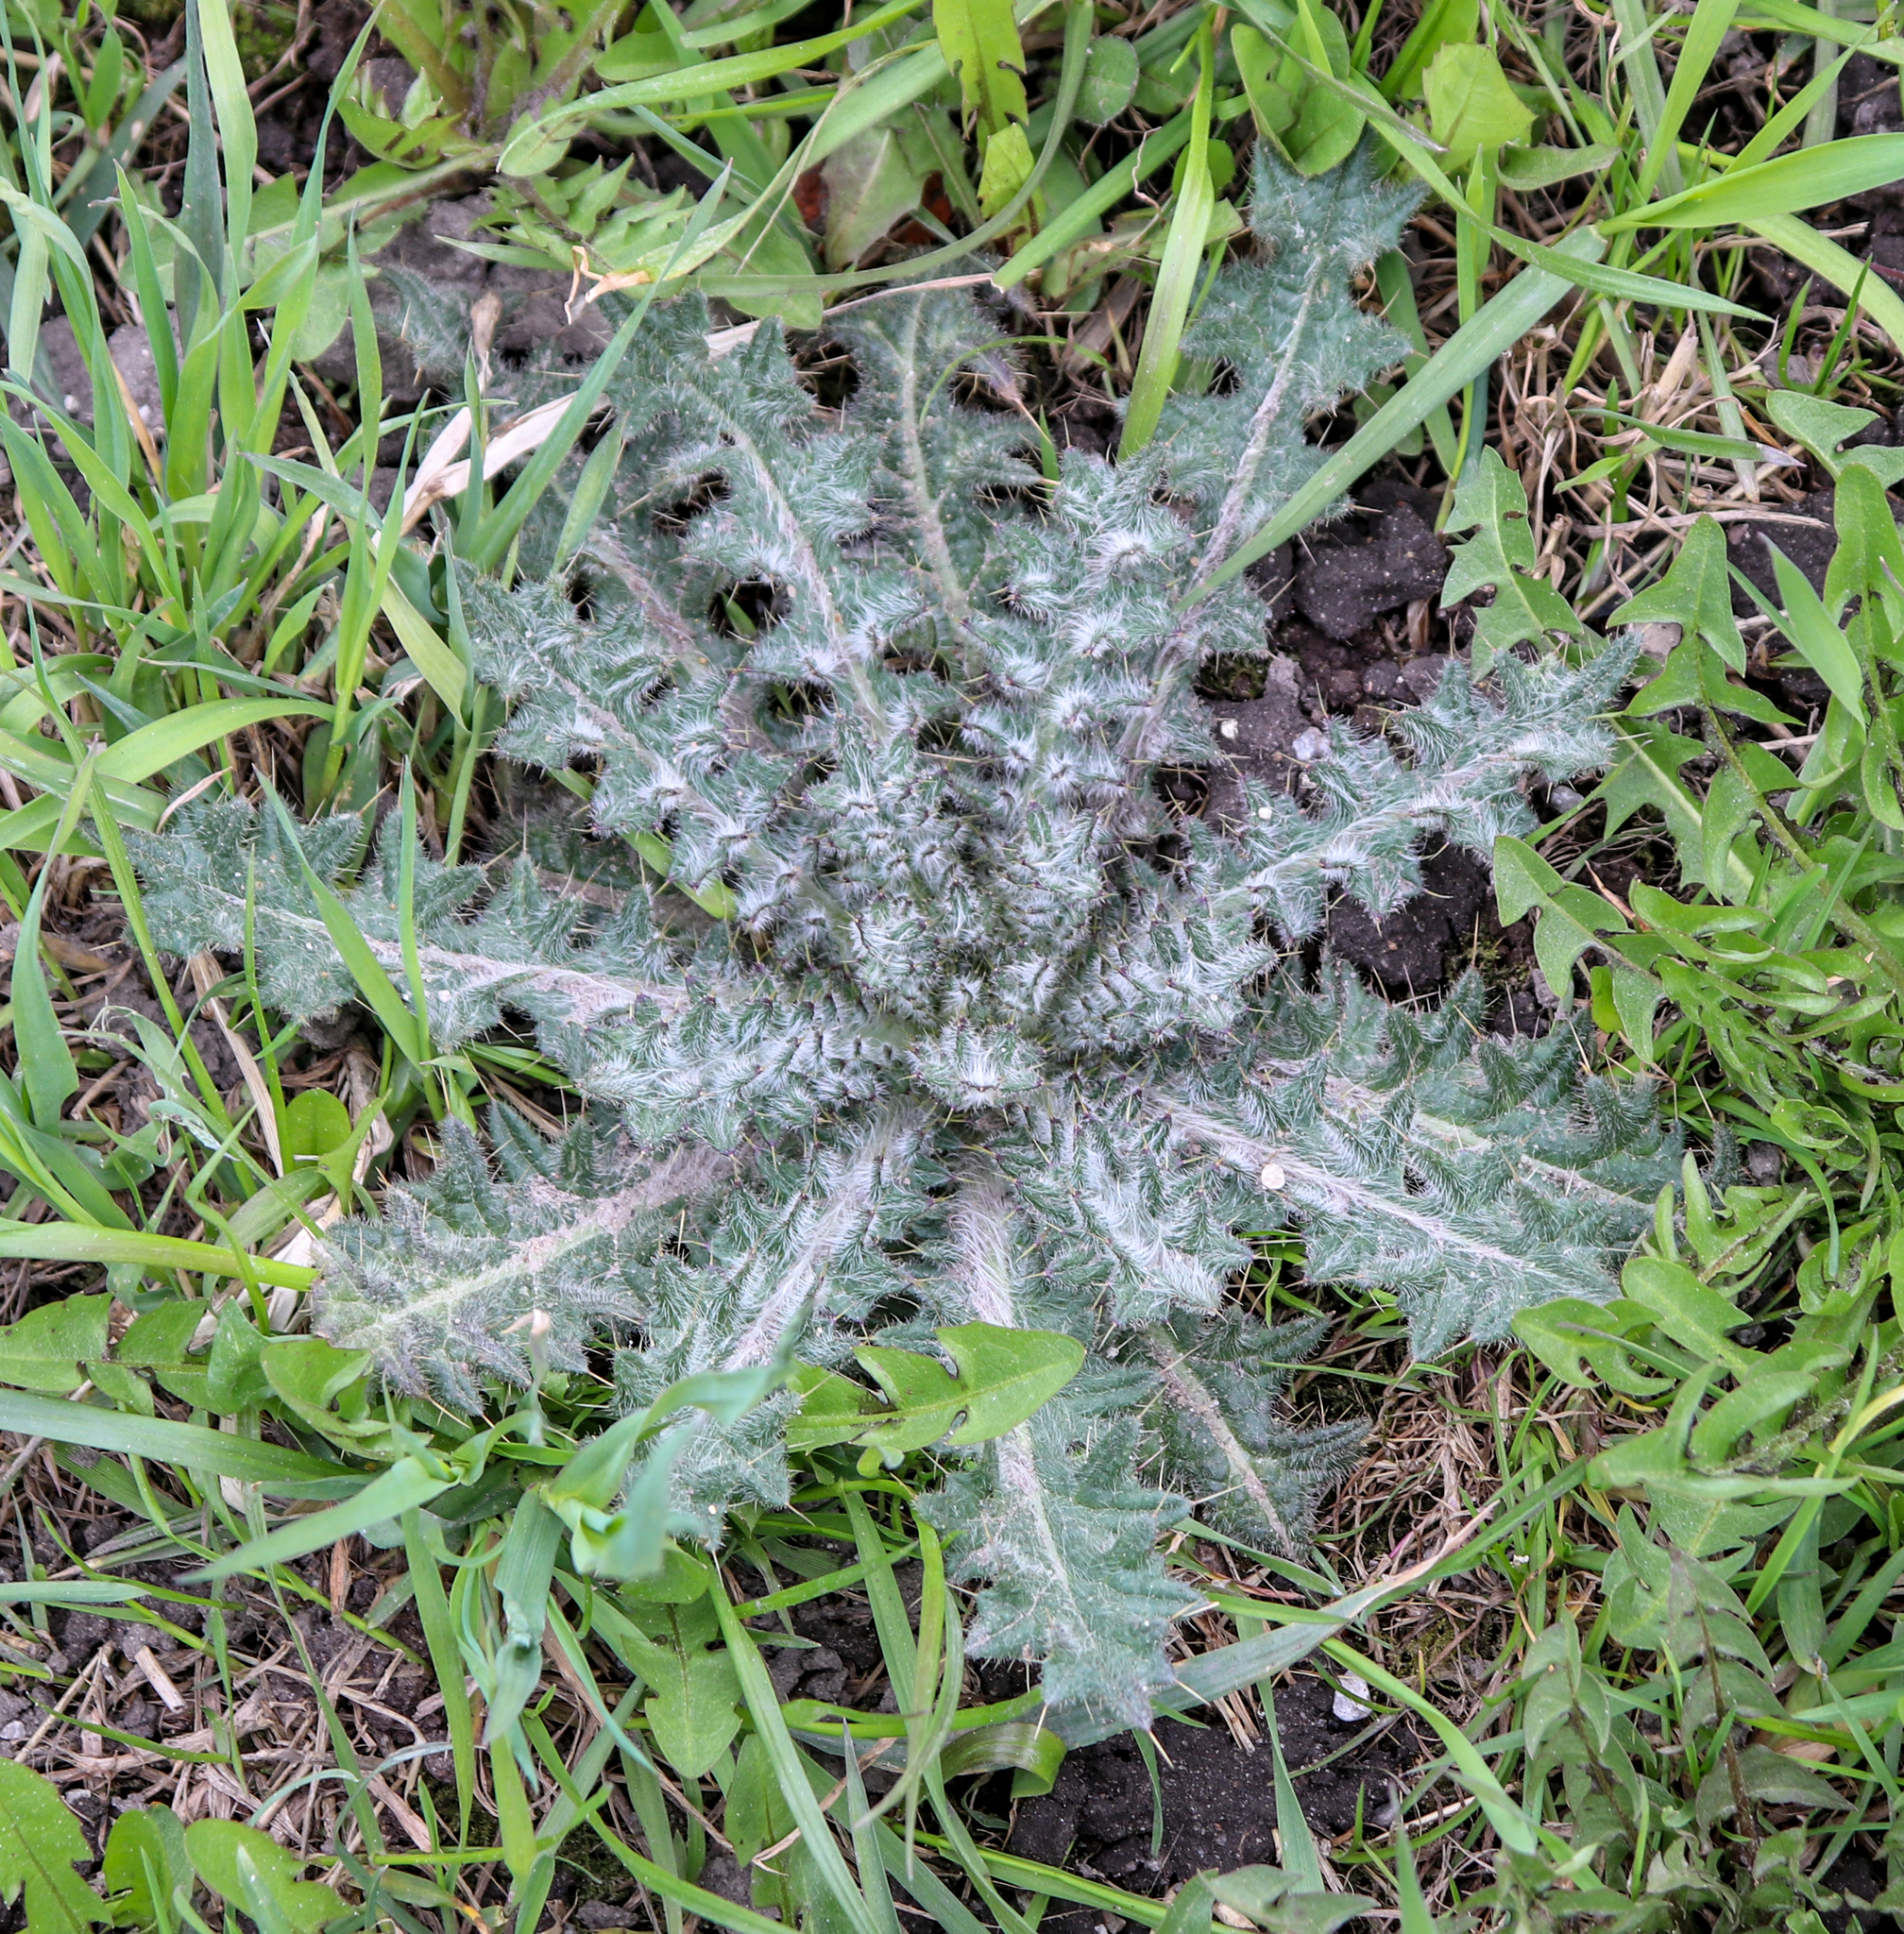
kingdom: Plantae
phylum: Tracheophyta
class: Magnoliopsida
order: Asterales
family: Asteraceae
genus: Cirsium
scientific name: Cirsium vulgare
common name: Bull thistle
